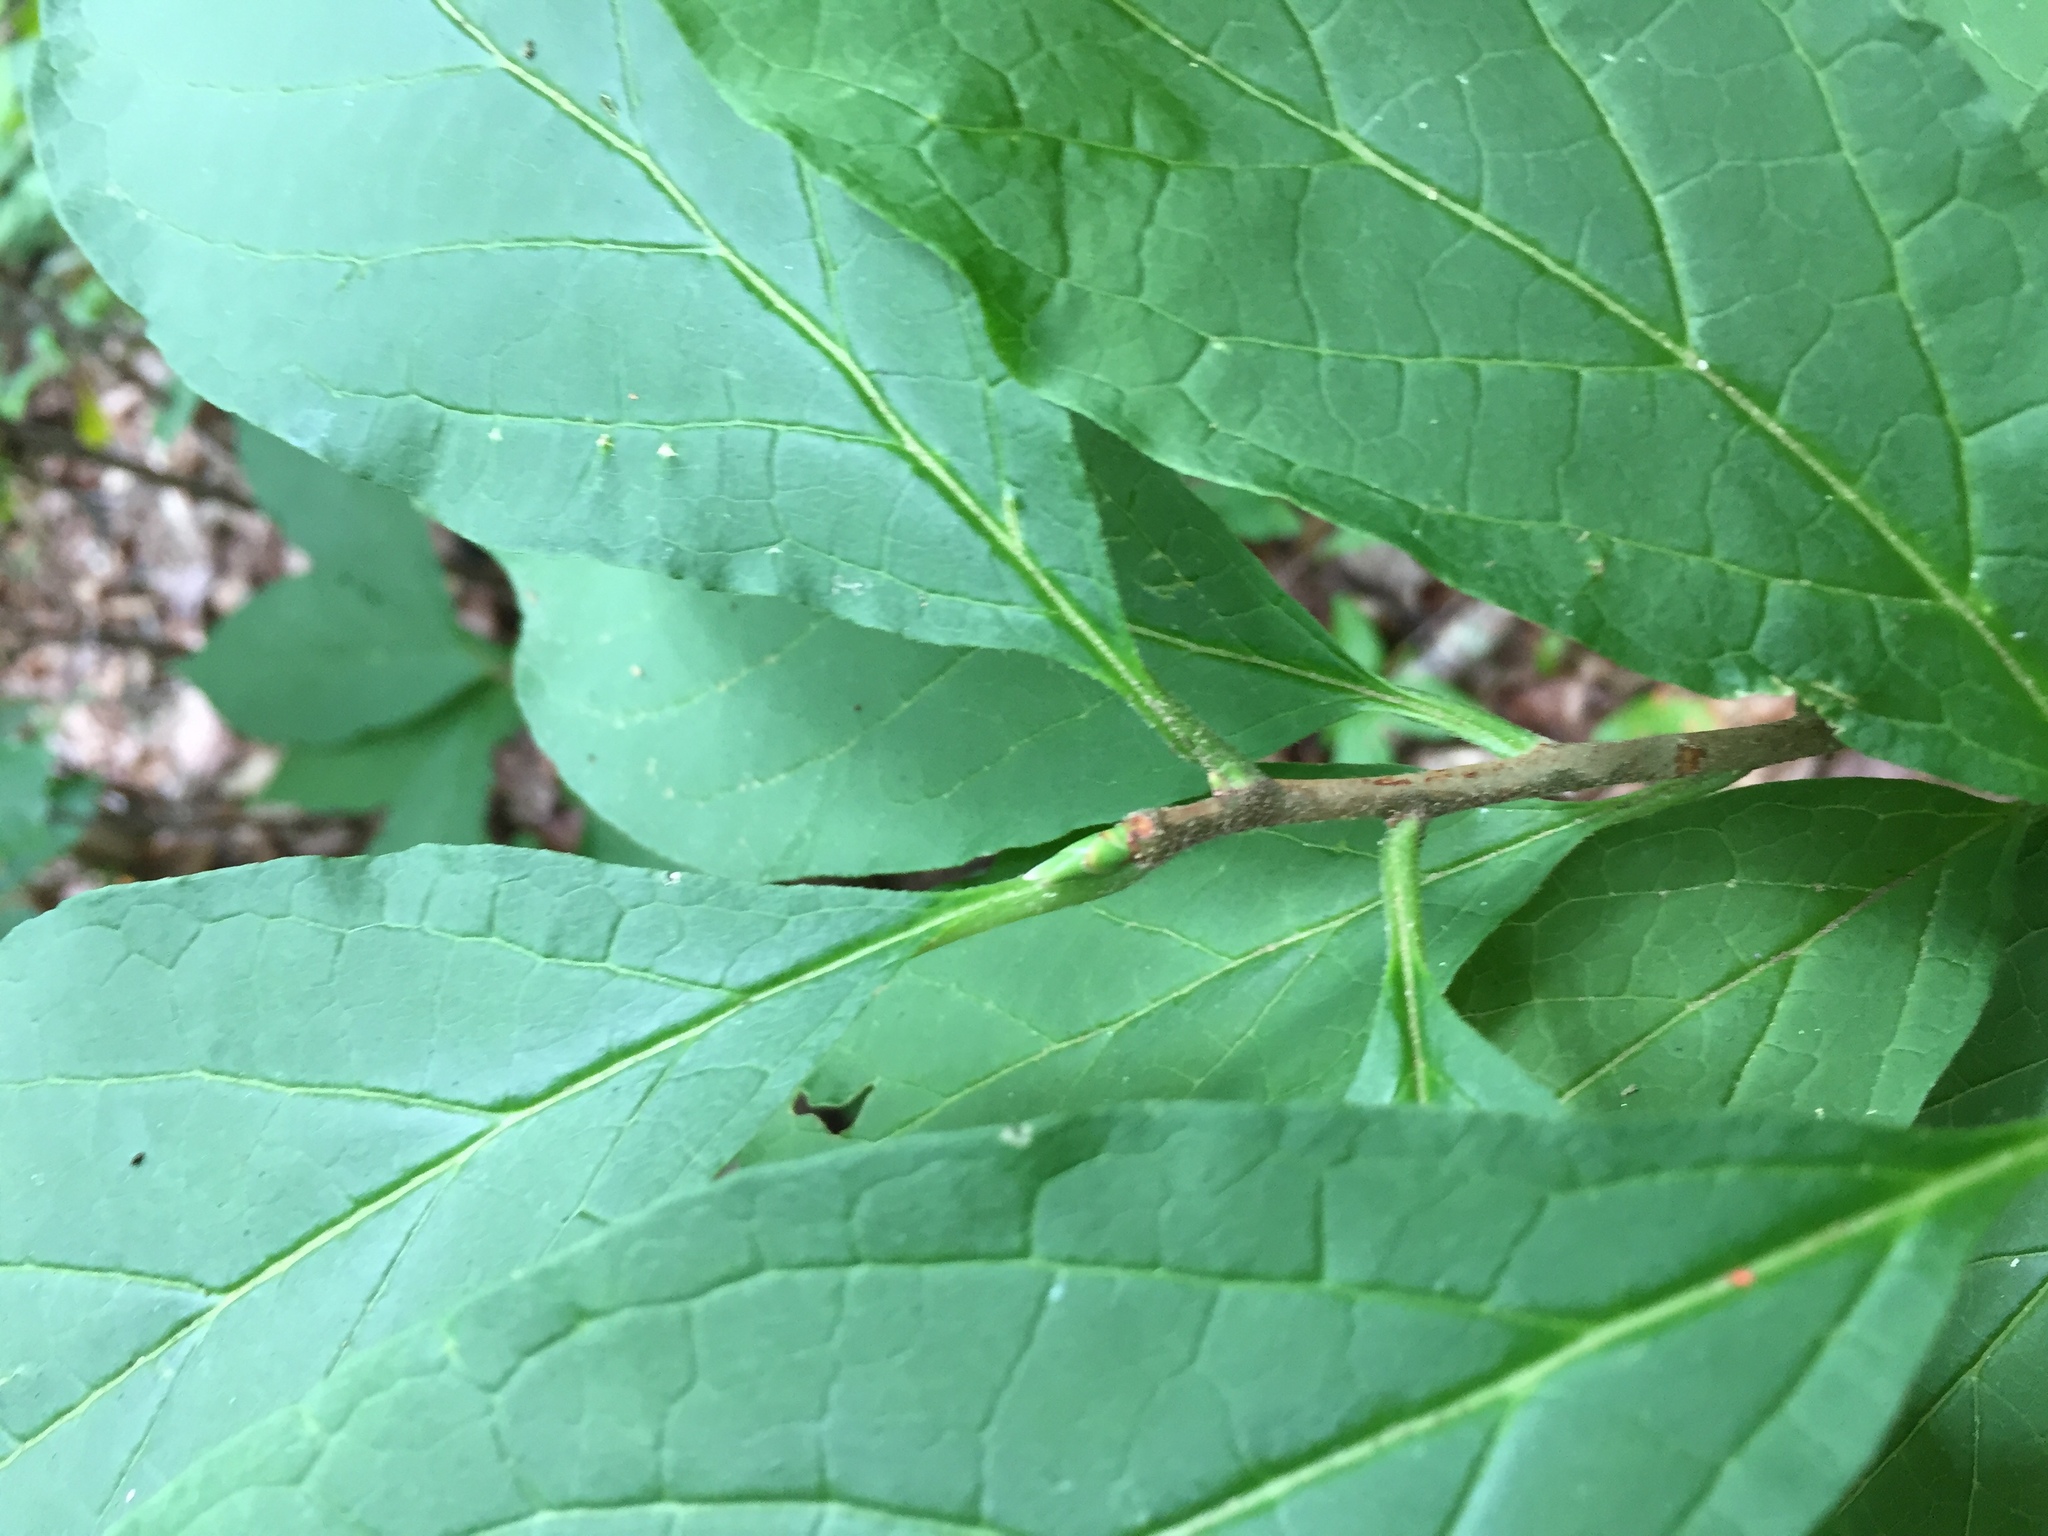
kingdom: Plantae
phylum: Tracheophyta
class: Magnoliopsida
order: Santalales
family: Cervantesiaceae
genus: Pyrularia
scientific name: Pyrularia pubera
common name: Oilnut
